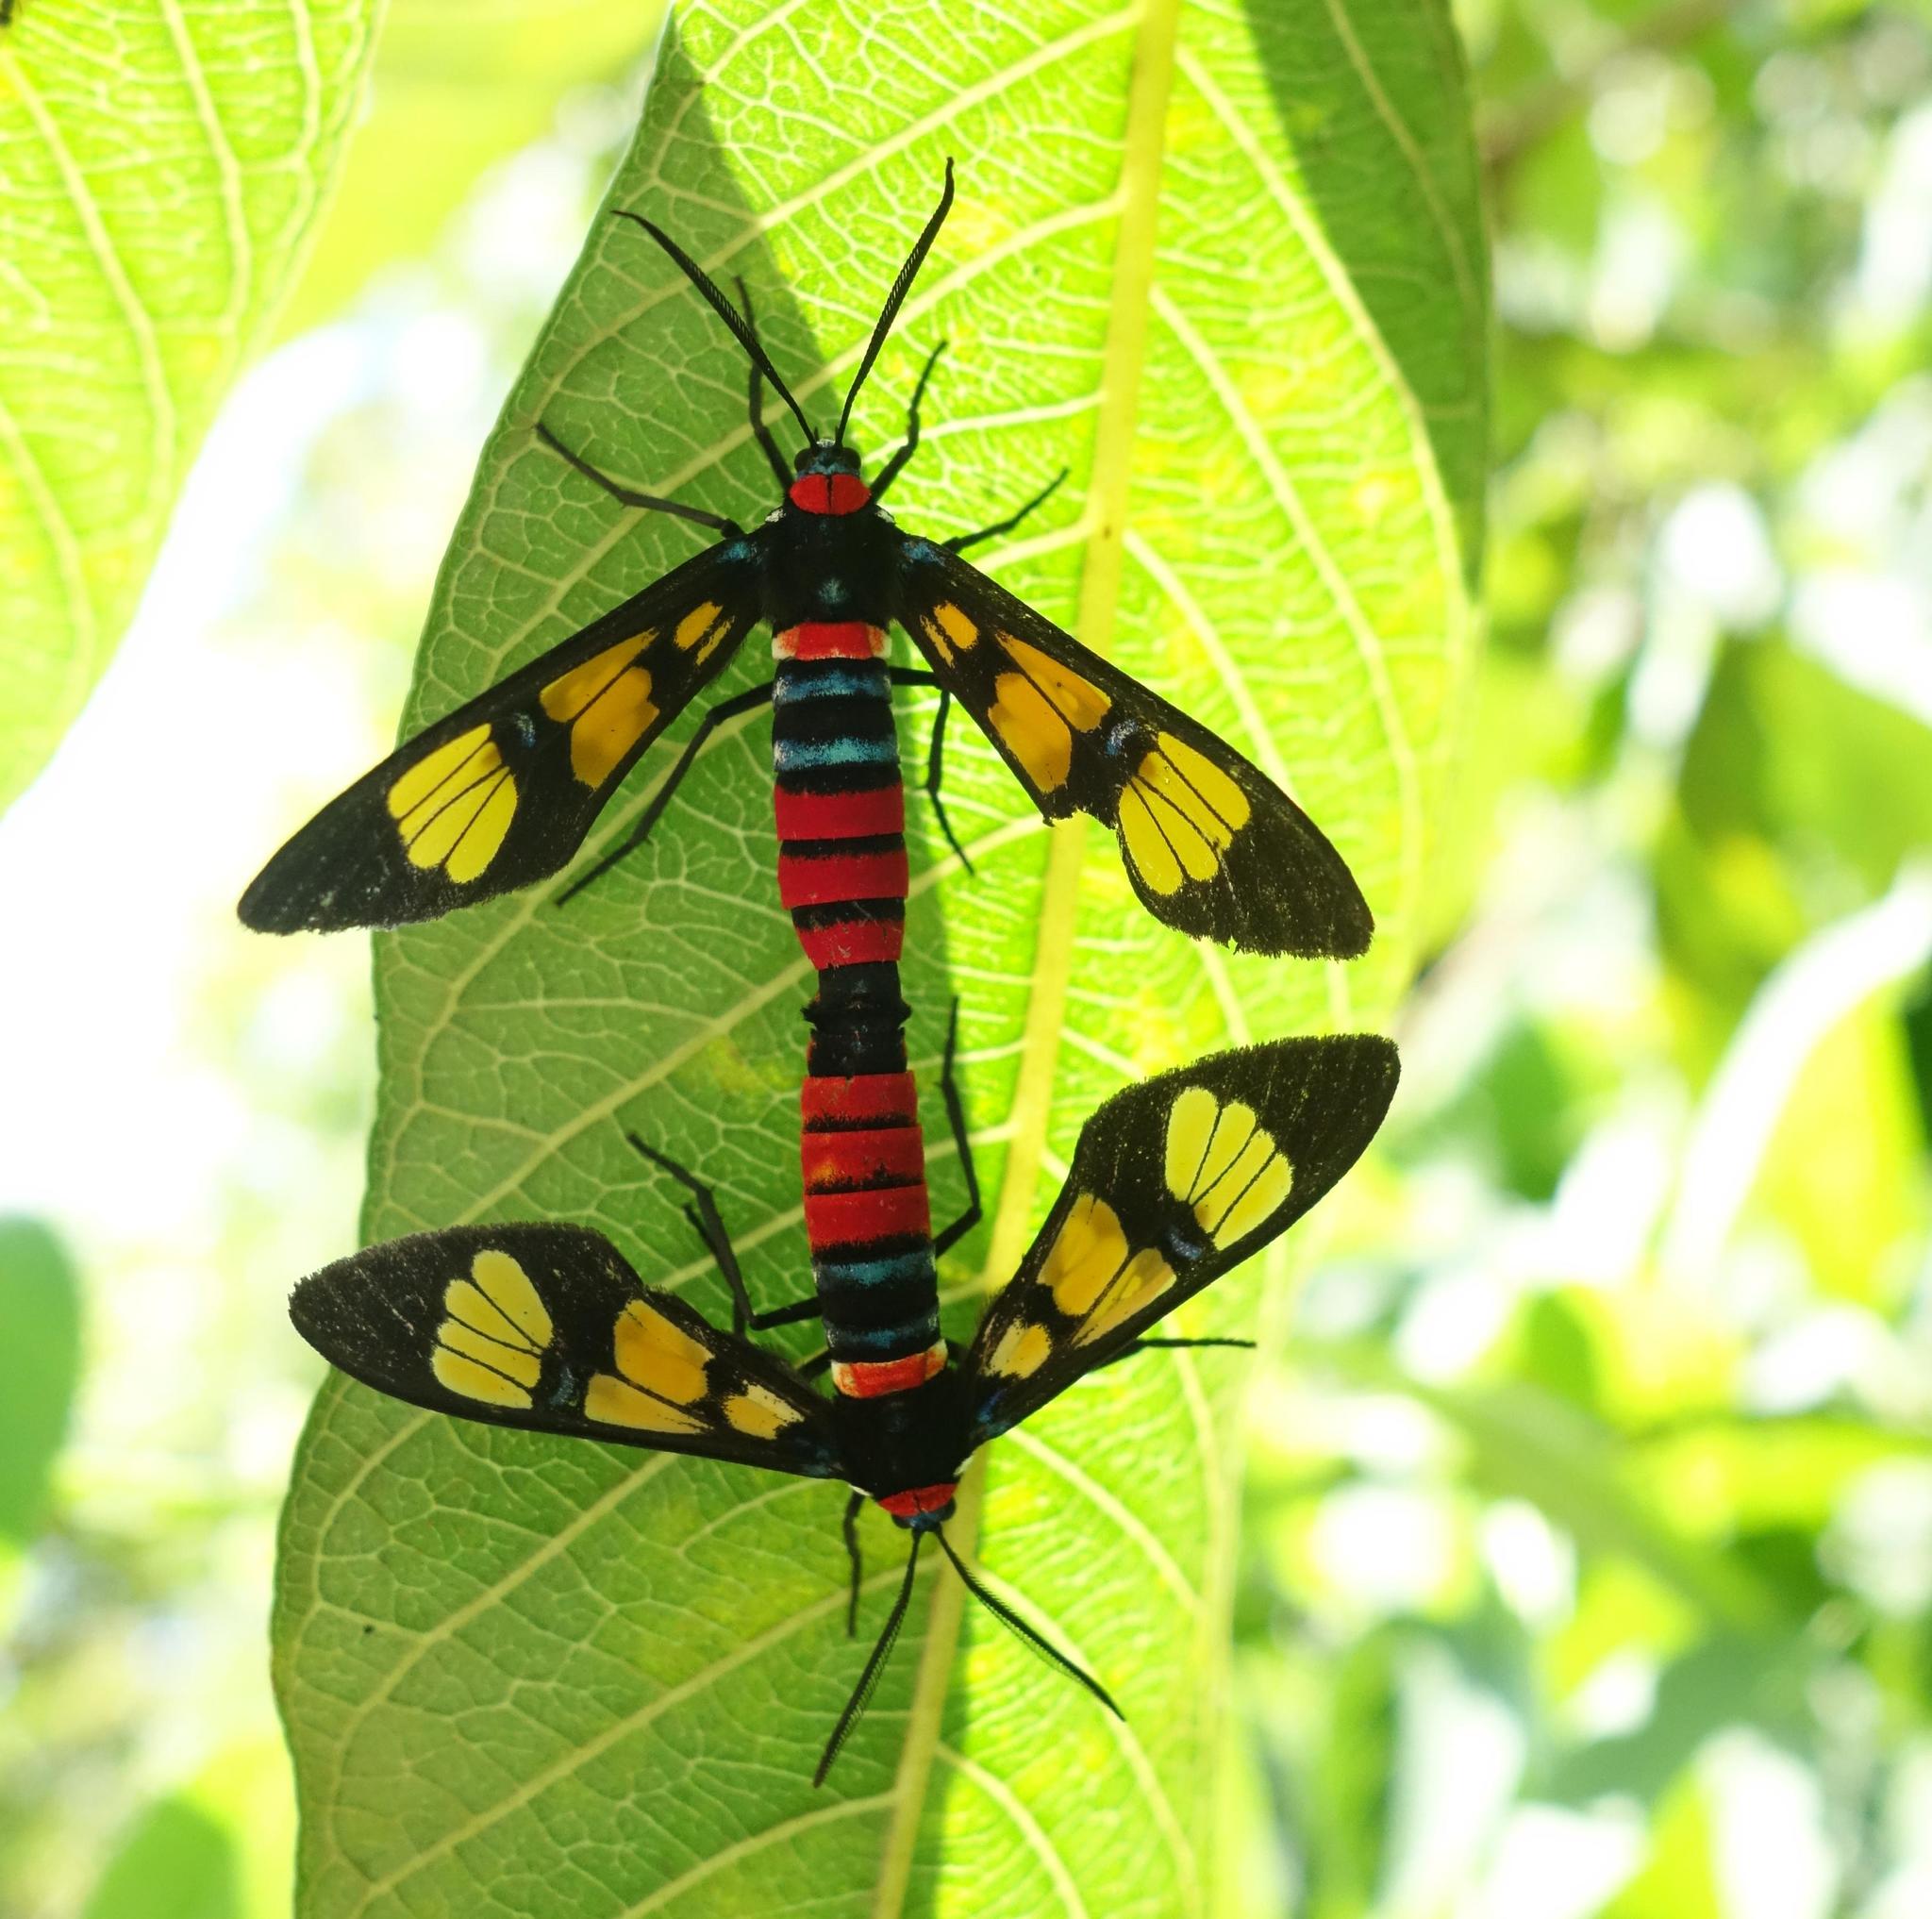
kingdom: Animalia
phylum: Arthropoda
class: Insecta
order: Lepidoptera
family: Erebidae
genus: Euchromia
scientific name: Euchromia polymena
